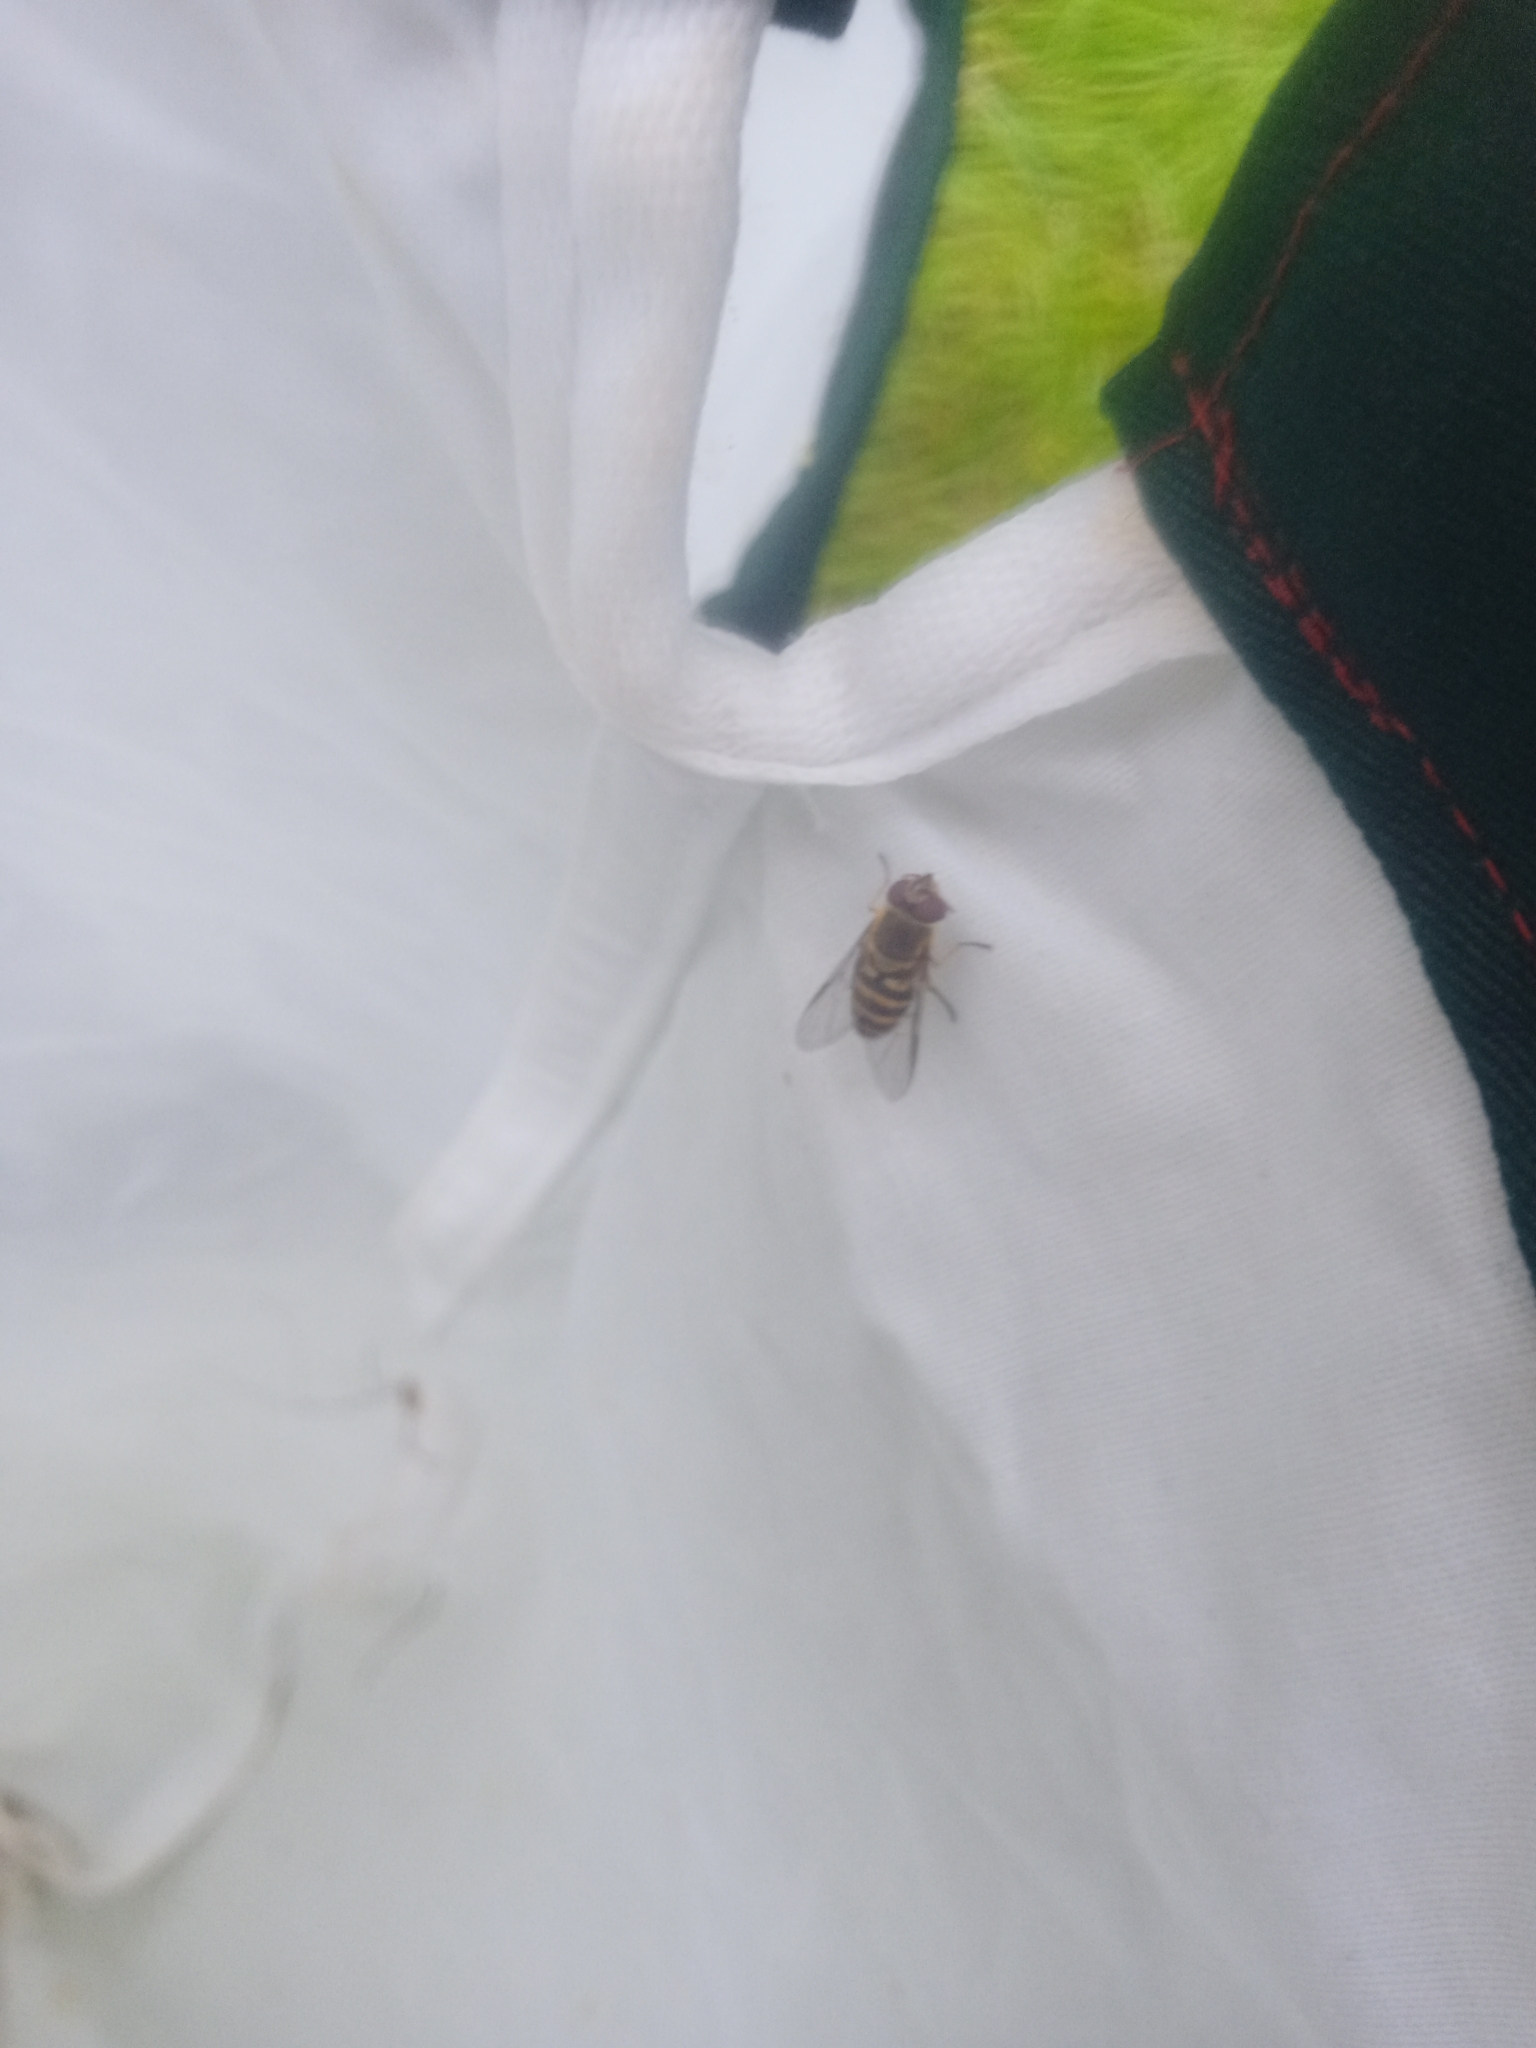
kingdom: Animalia
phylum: Arthropoda
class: Insecta
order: Diptera
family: Syrphidae
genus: Syrphus
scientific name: Syrphus
